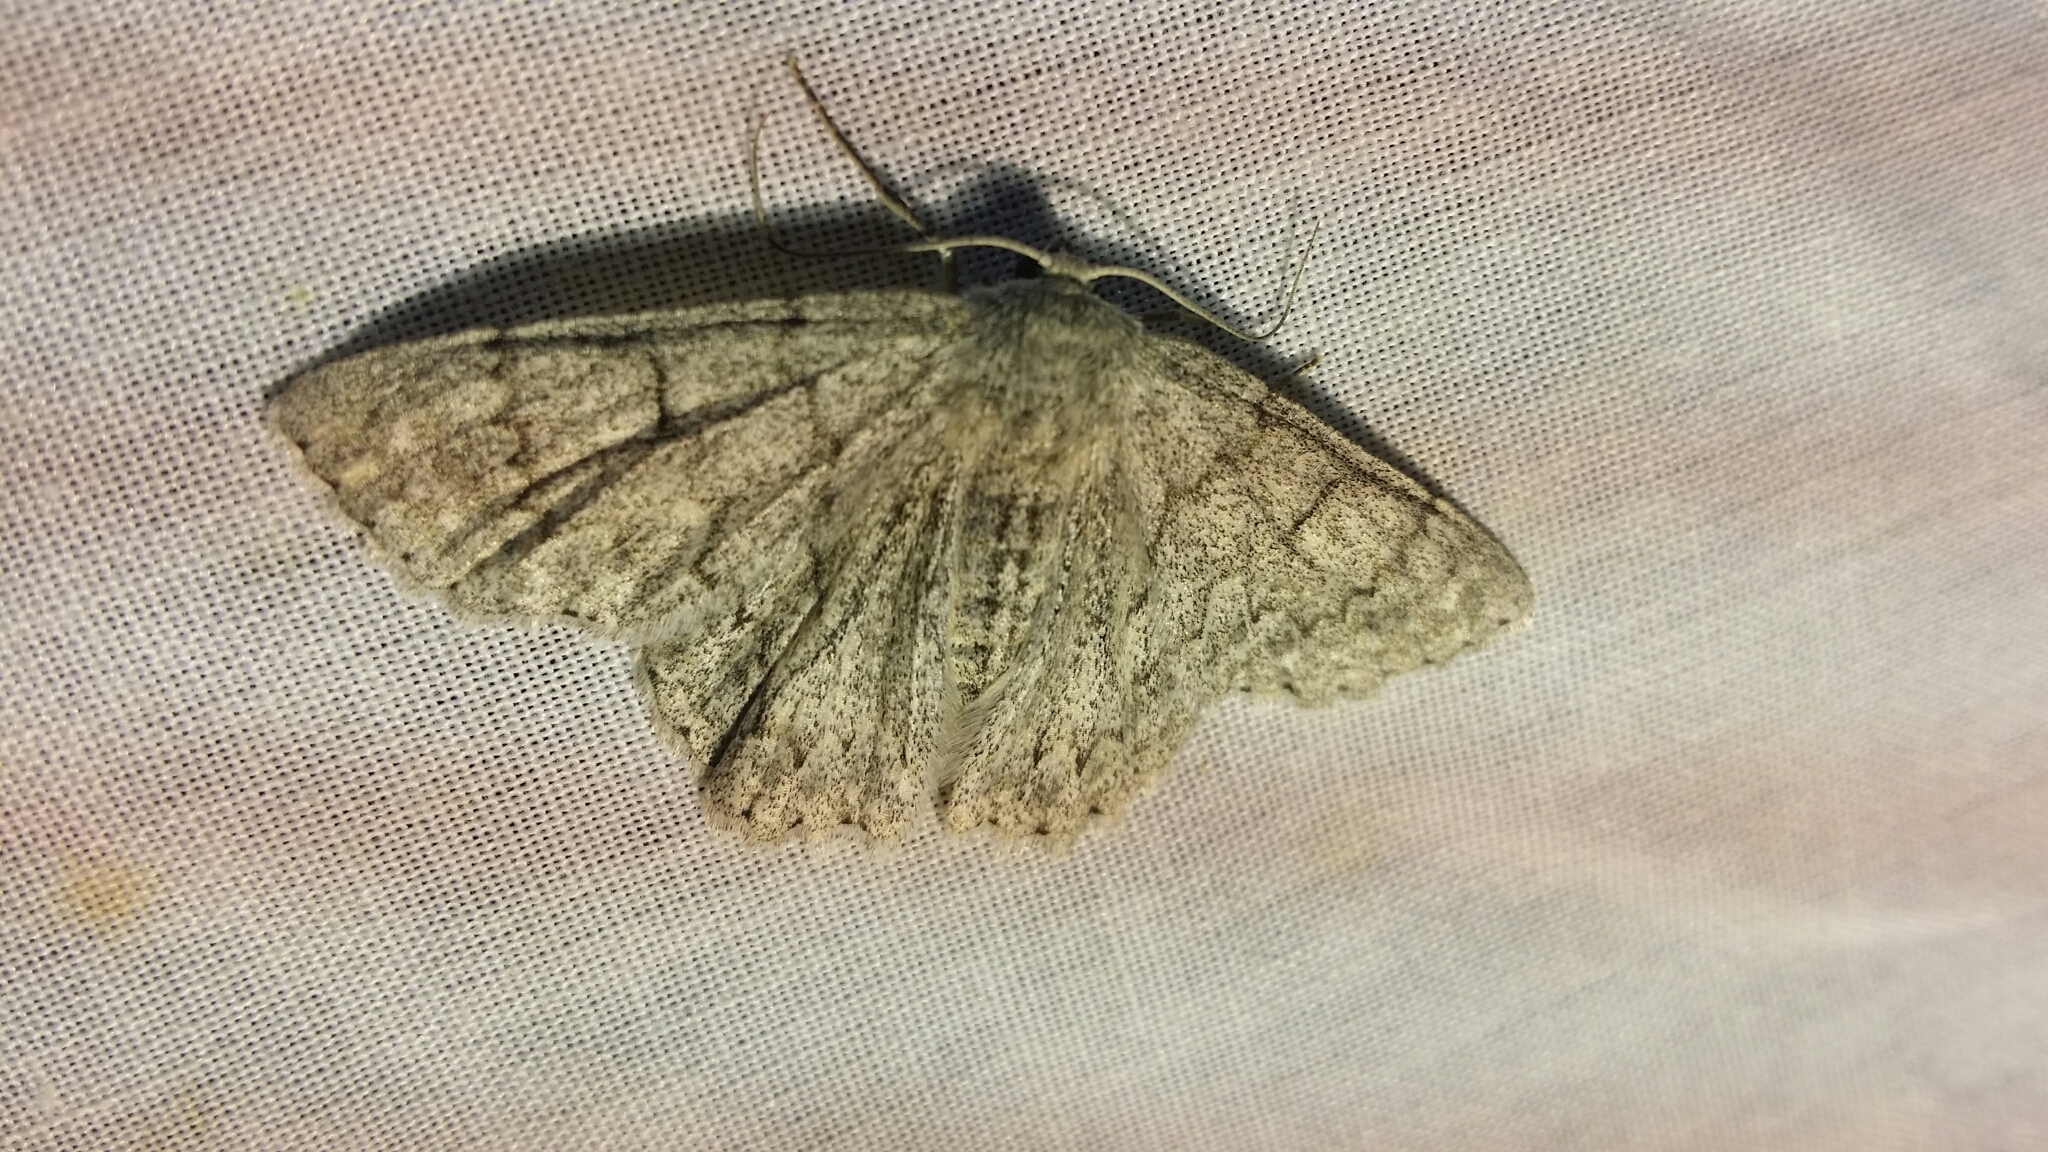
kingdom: Animalia
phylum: Arthropoda
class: Insecta
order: Lepidoptera
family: Geometridae
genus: Crypsiphona
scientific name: Crypsiphona ocultaria
